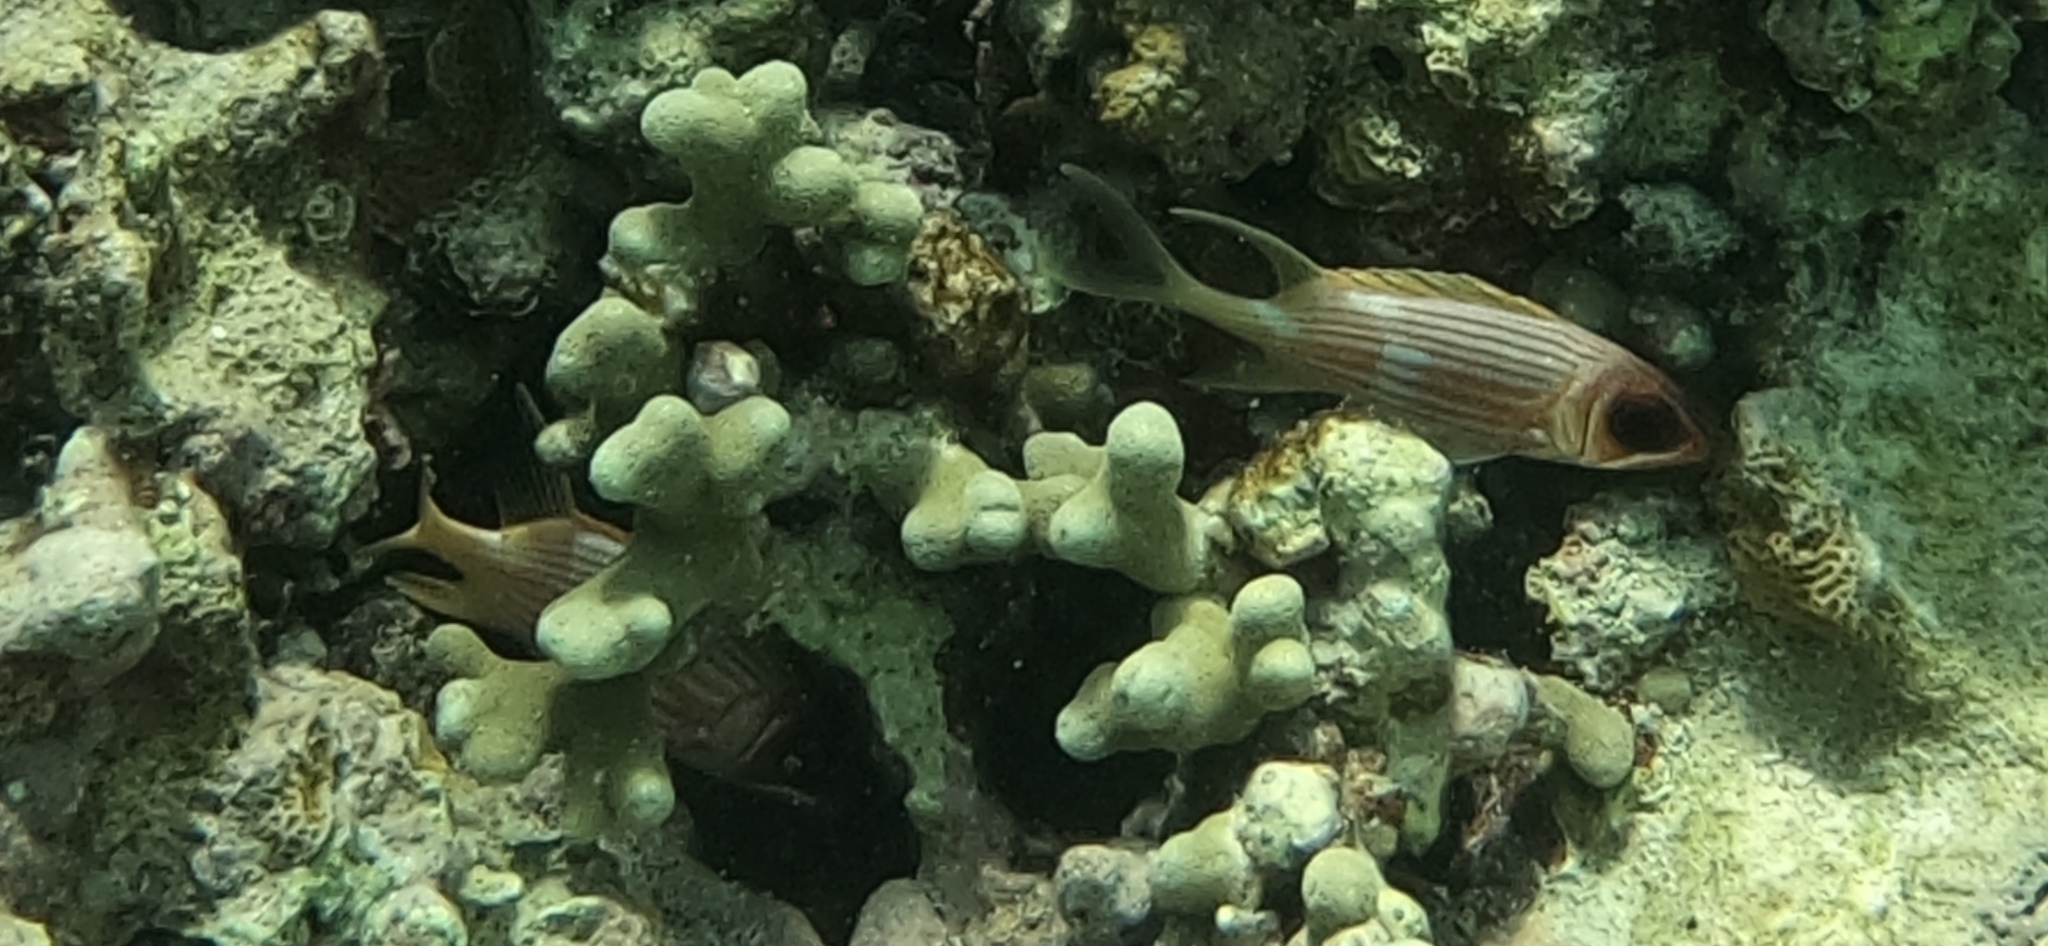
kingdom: Animalia
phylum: Chordata
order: Beryciformes
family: Holocentridae
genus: Holocentrus
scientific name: Holocentrus adscensionis
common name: Squirrelfish
